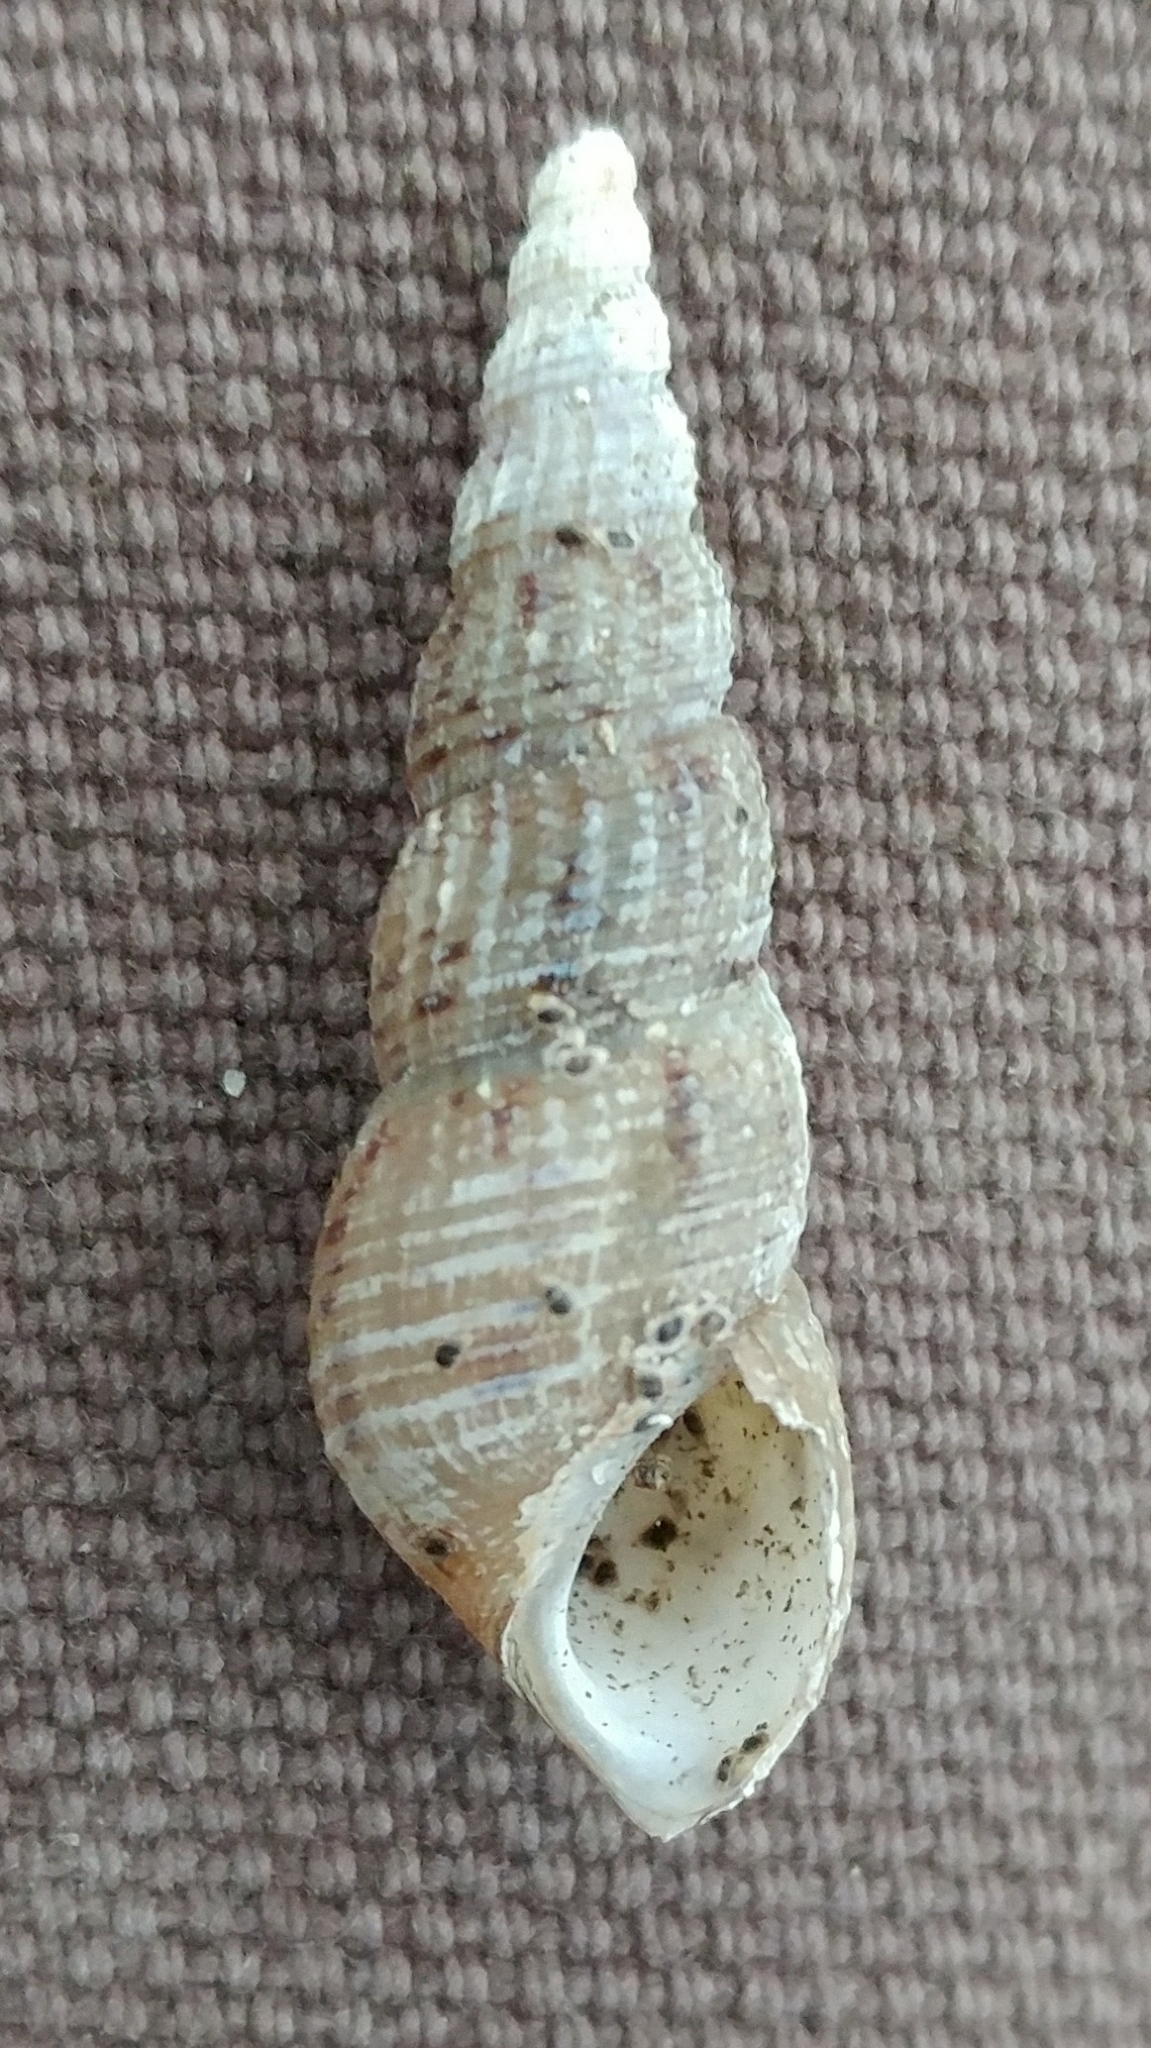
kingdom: Animalia
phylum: Mollusca
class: Gastropoda
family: Thiaridae
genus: Melanoides
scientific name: Melanoides tuberculata
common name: Red-rim melania
